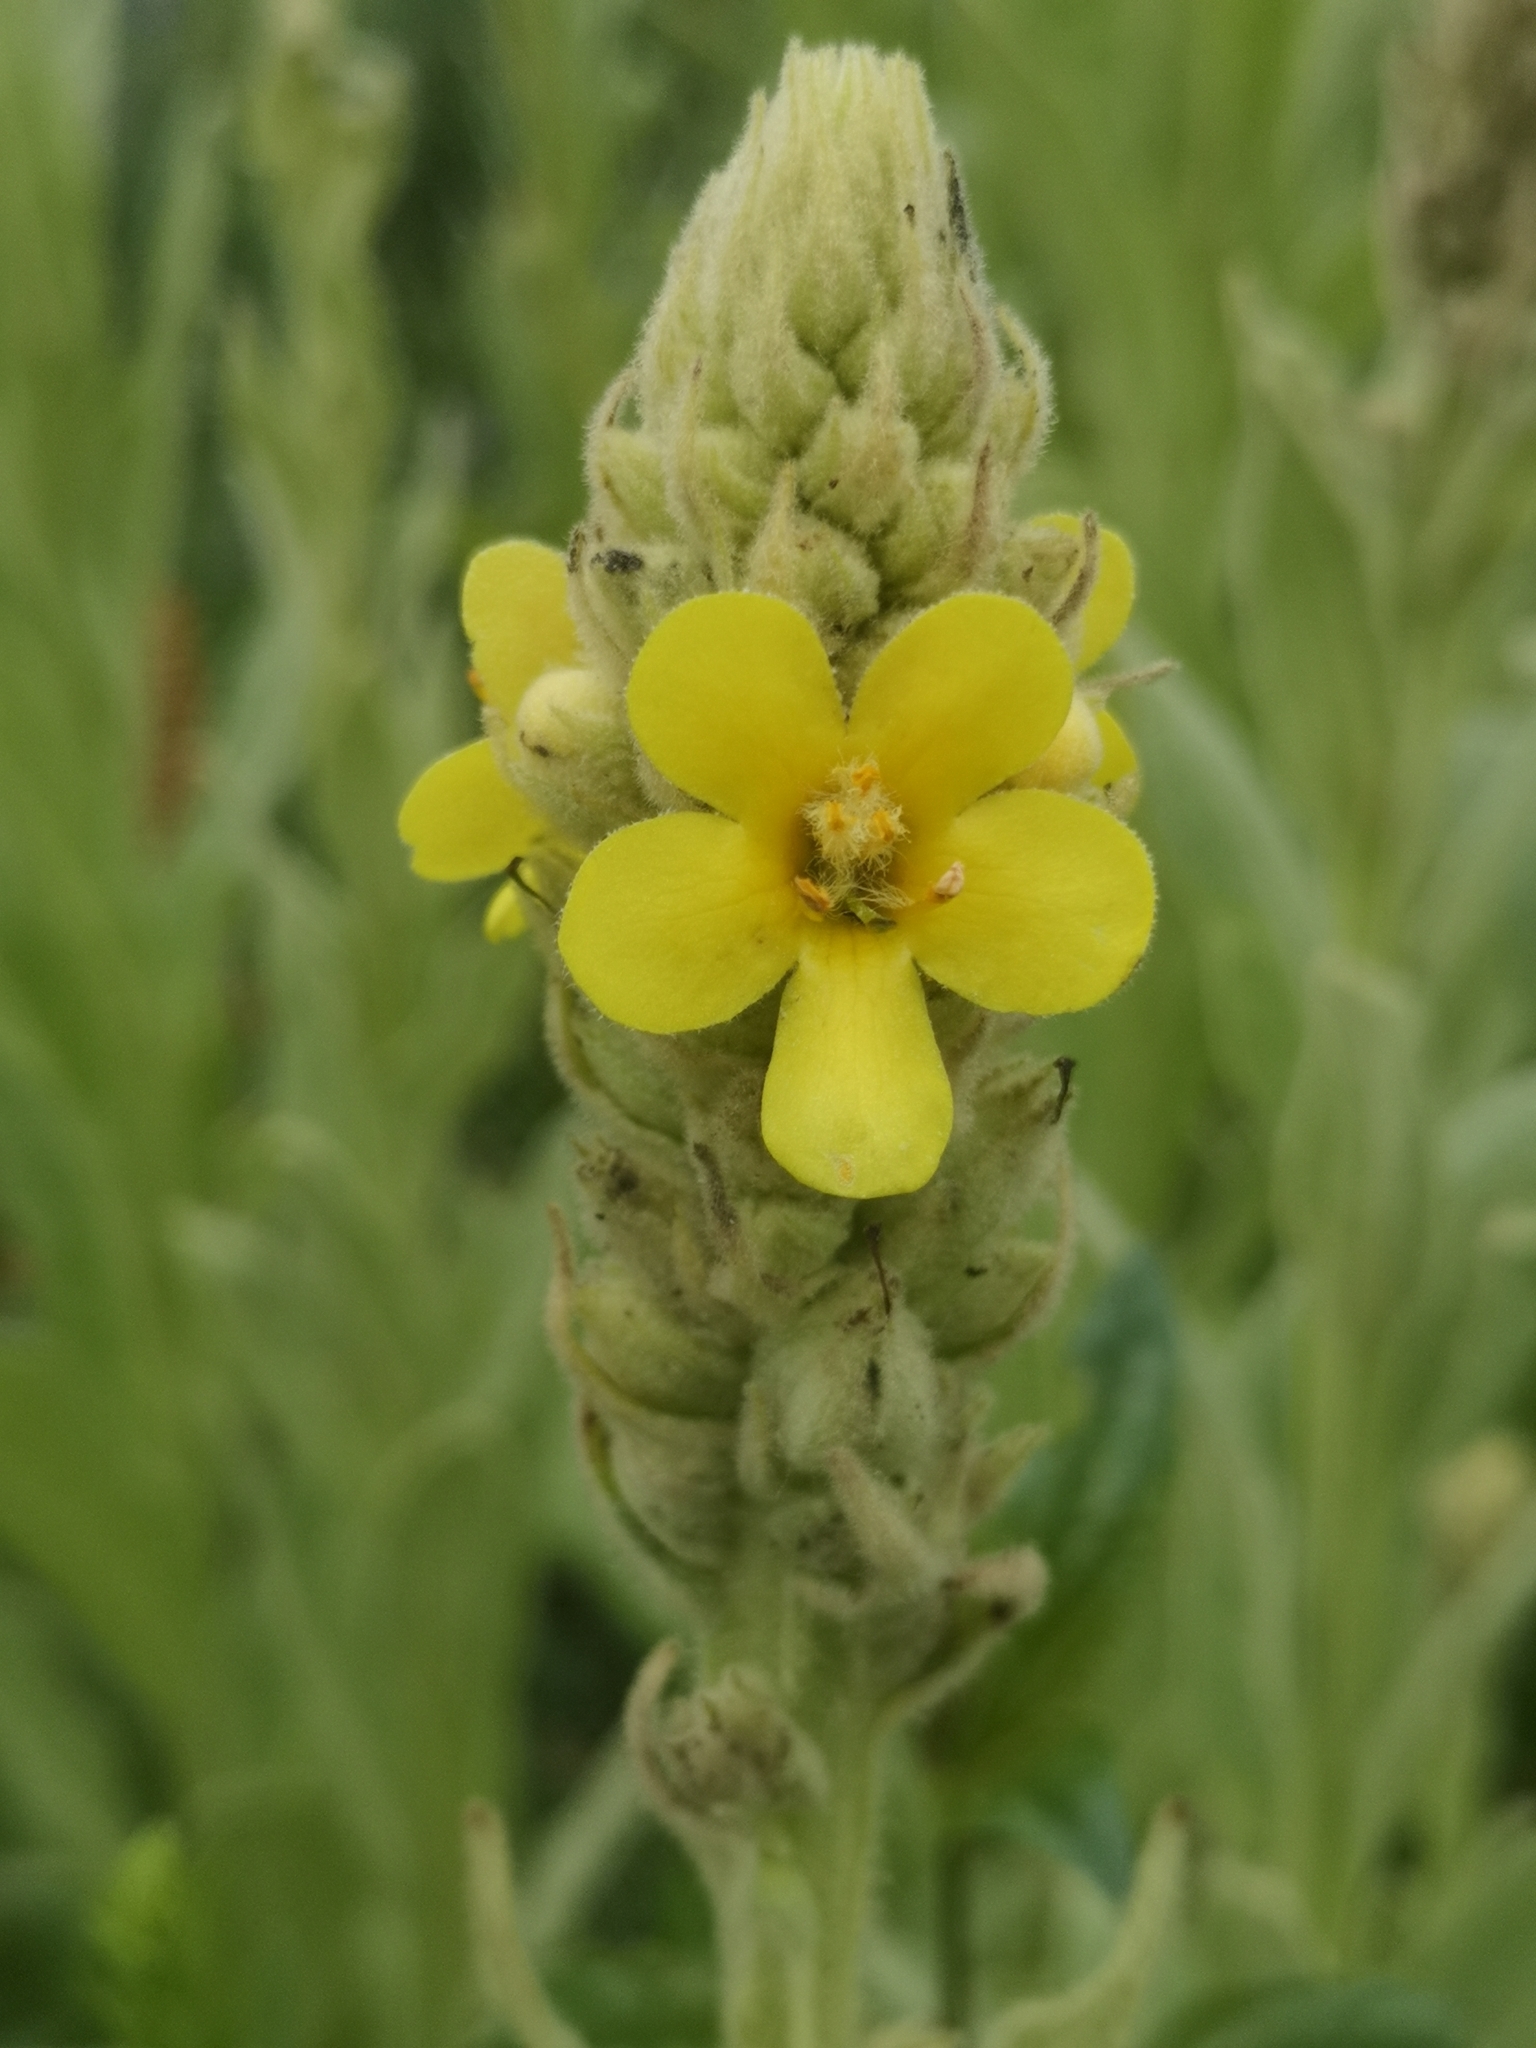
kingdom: Plantae
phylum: Tracheophyta
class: Magnoliopsida
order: Lamiales
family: Scrophulariaceae
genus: Verbascum
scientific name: Verbascum thapsus
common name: Common mullein
